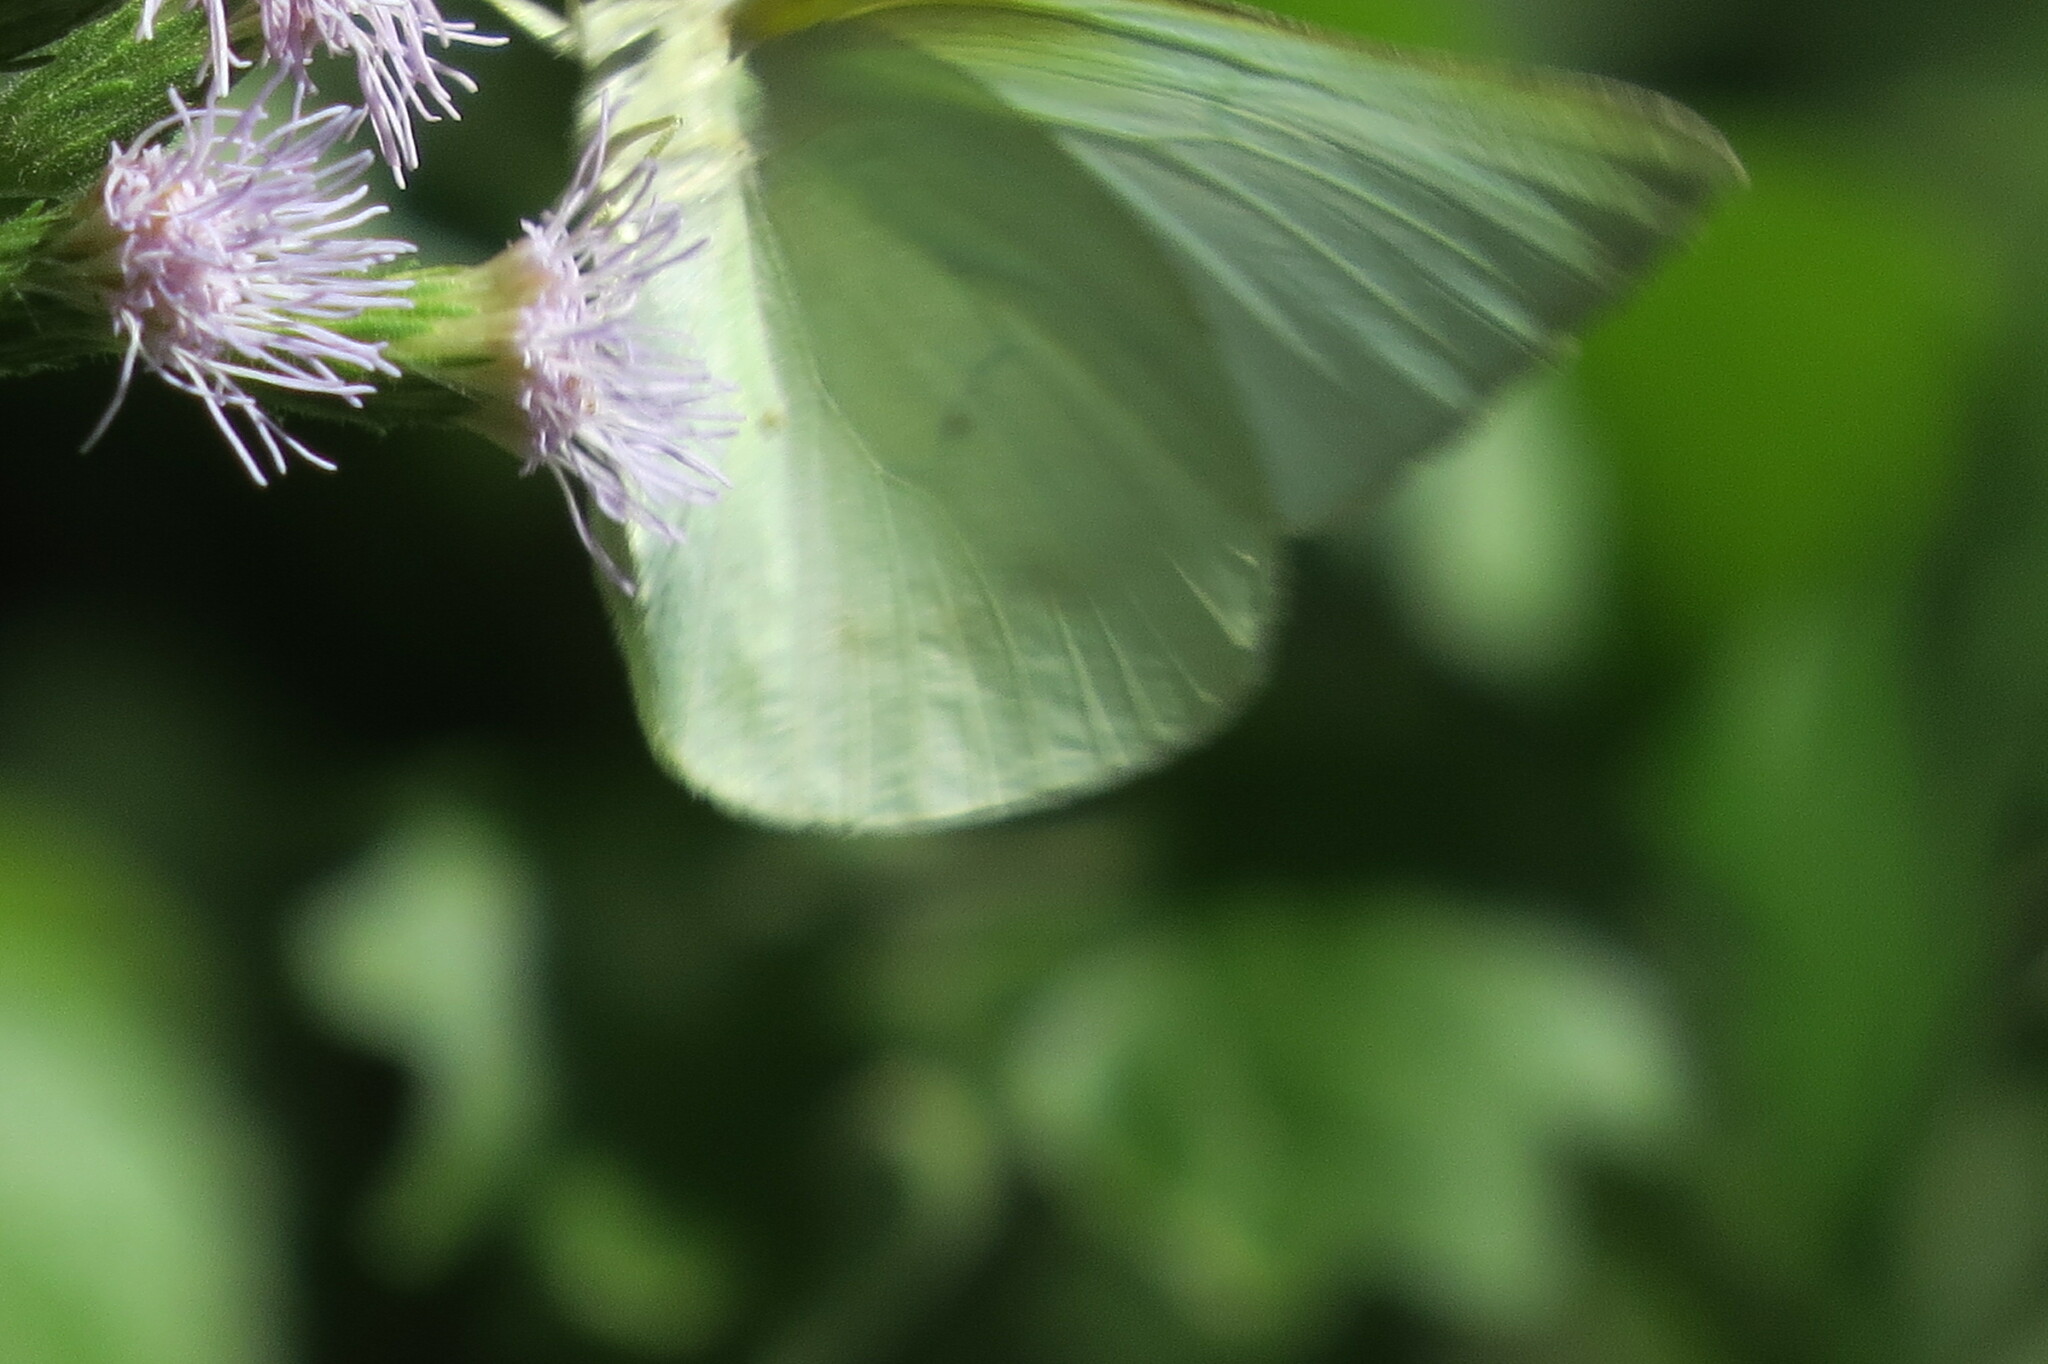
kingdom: Animalia
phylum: Arthropoda
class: Insecta
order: Lepidoptera
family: Pieridae
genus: Kricogonia
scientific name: Kricogonia lyside
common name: Guayacan sulphur,
